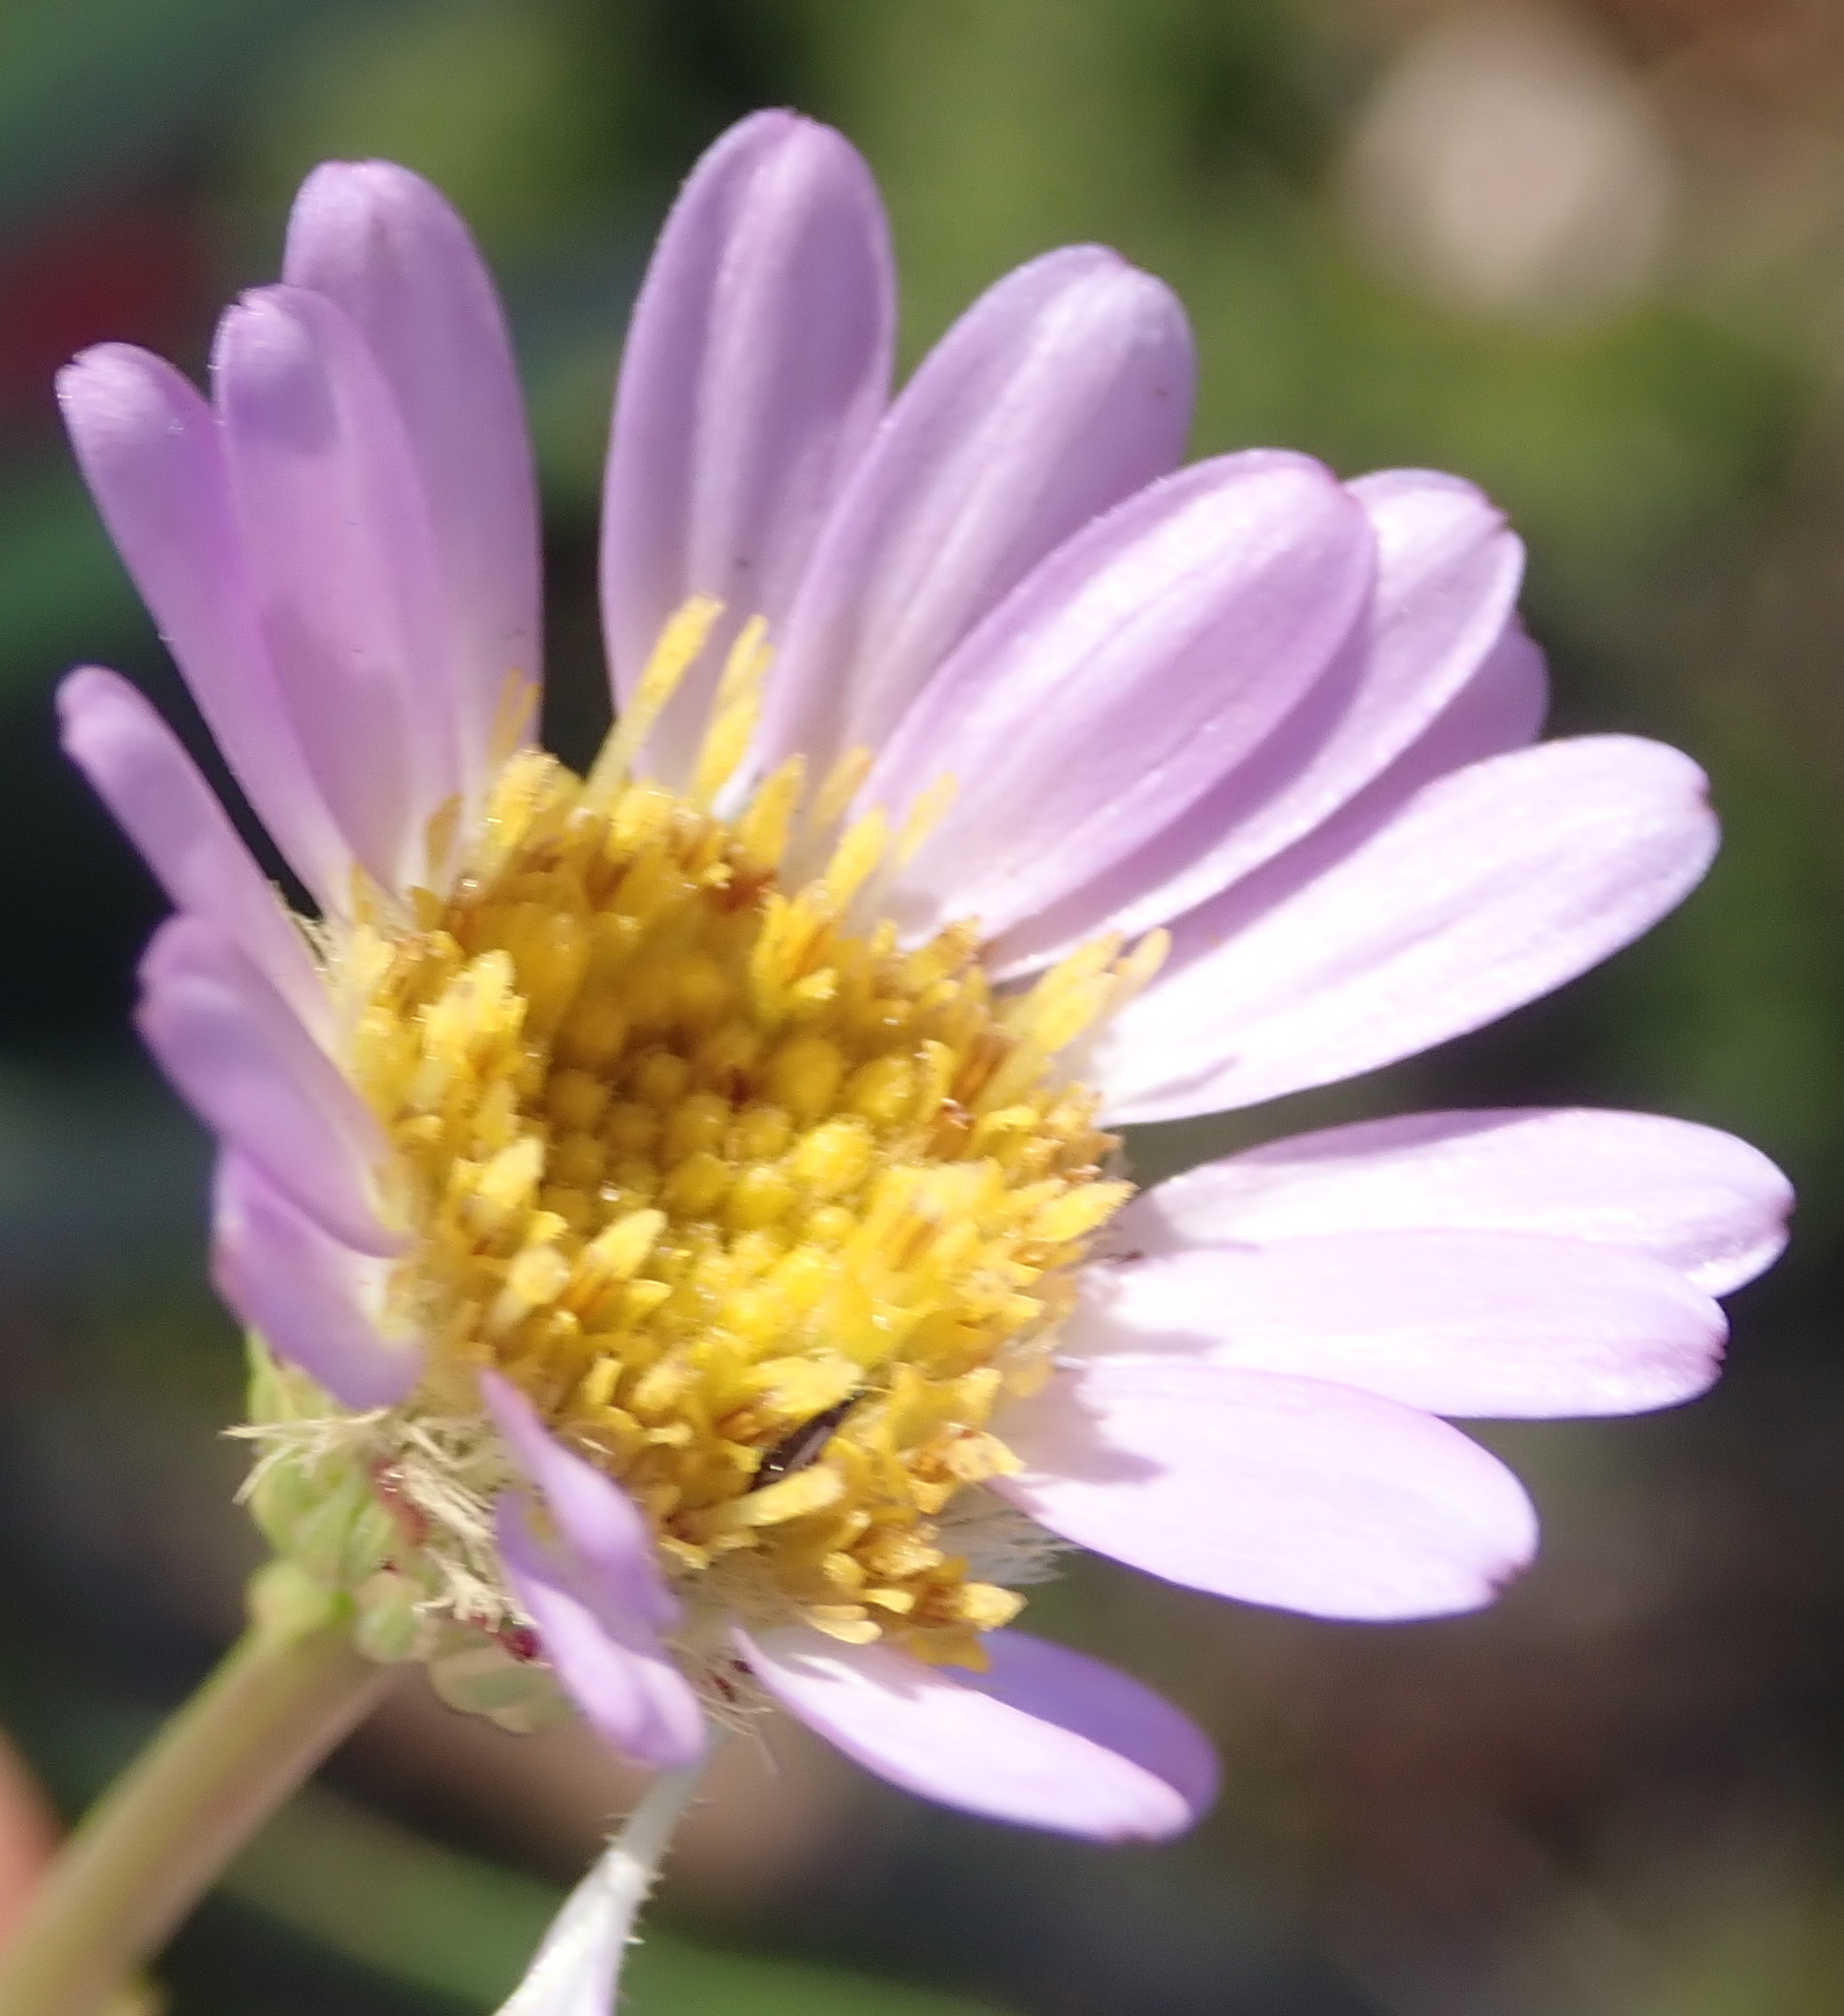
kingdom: Plantae
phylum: Tracheophyta
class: Magnoliopsida
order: Asterales
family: Asteraceae
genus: Afroaster
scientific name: Afroaster serrulatus
